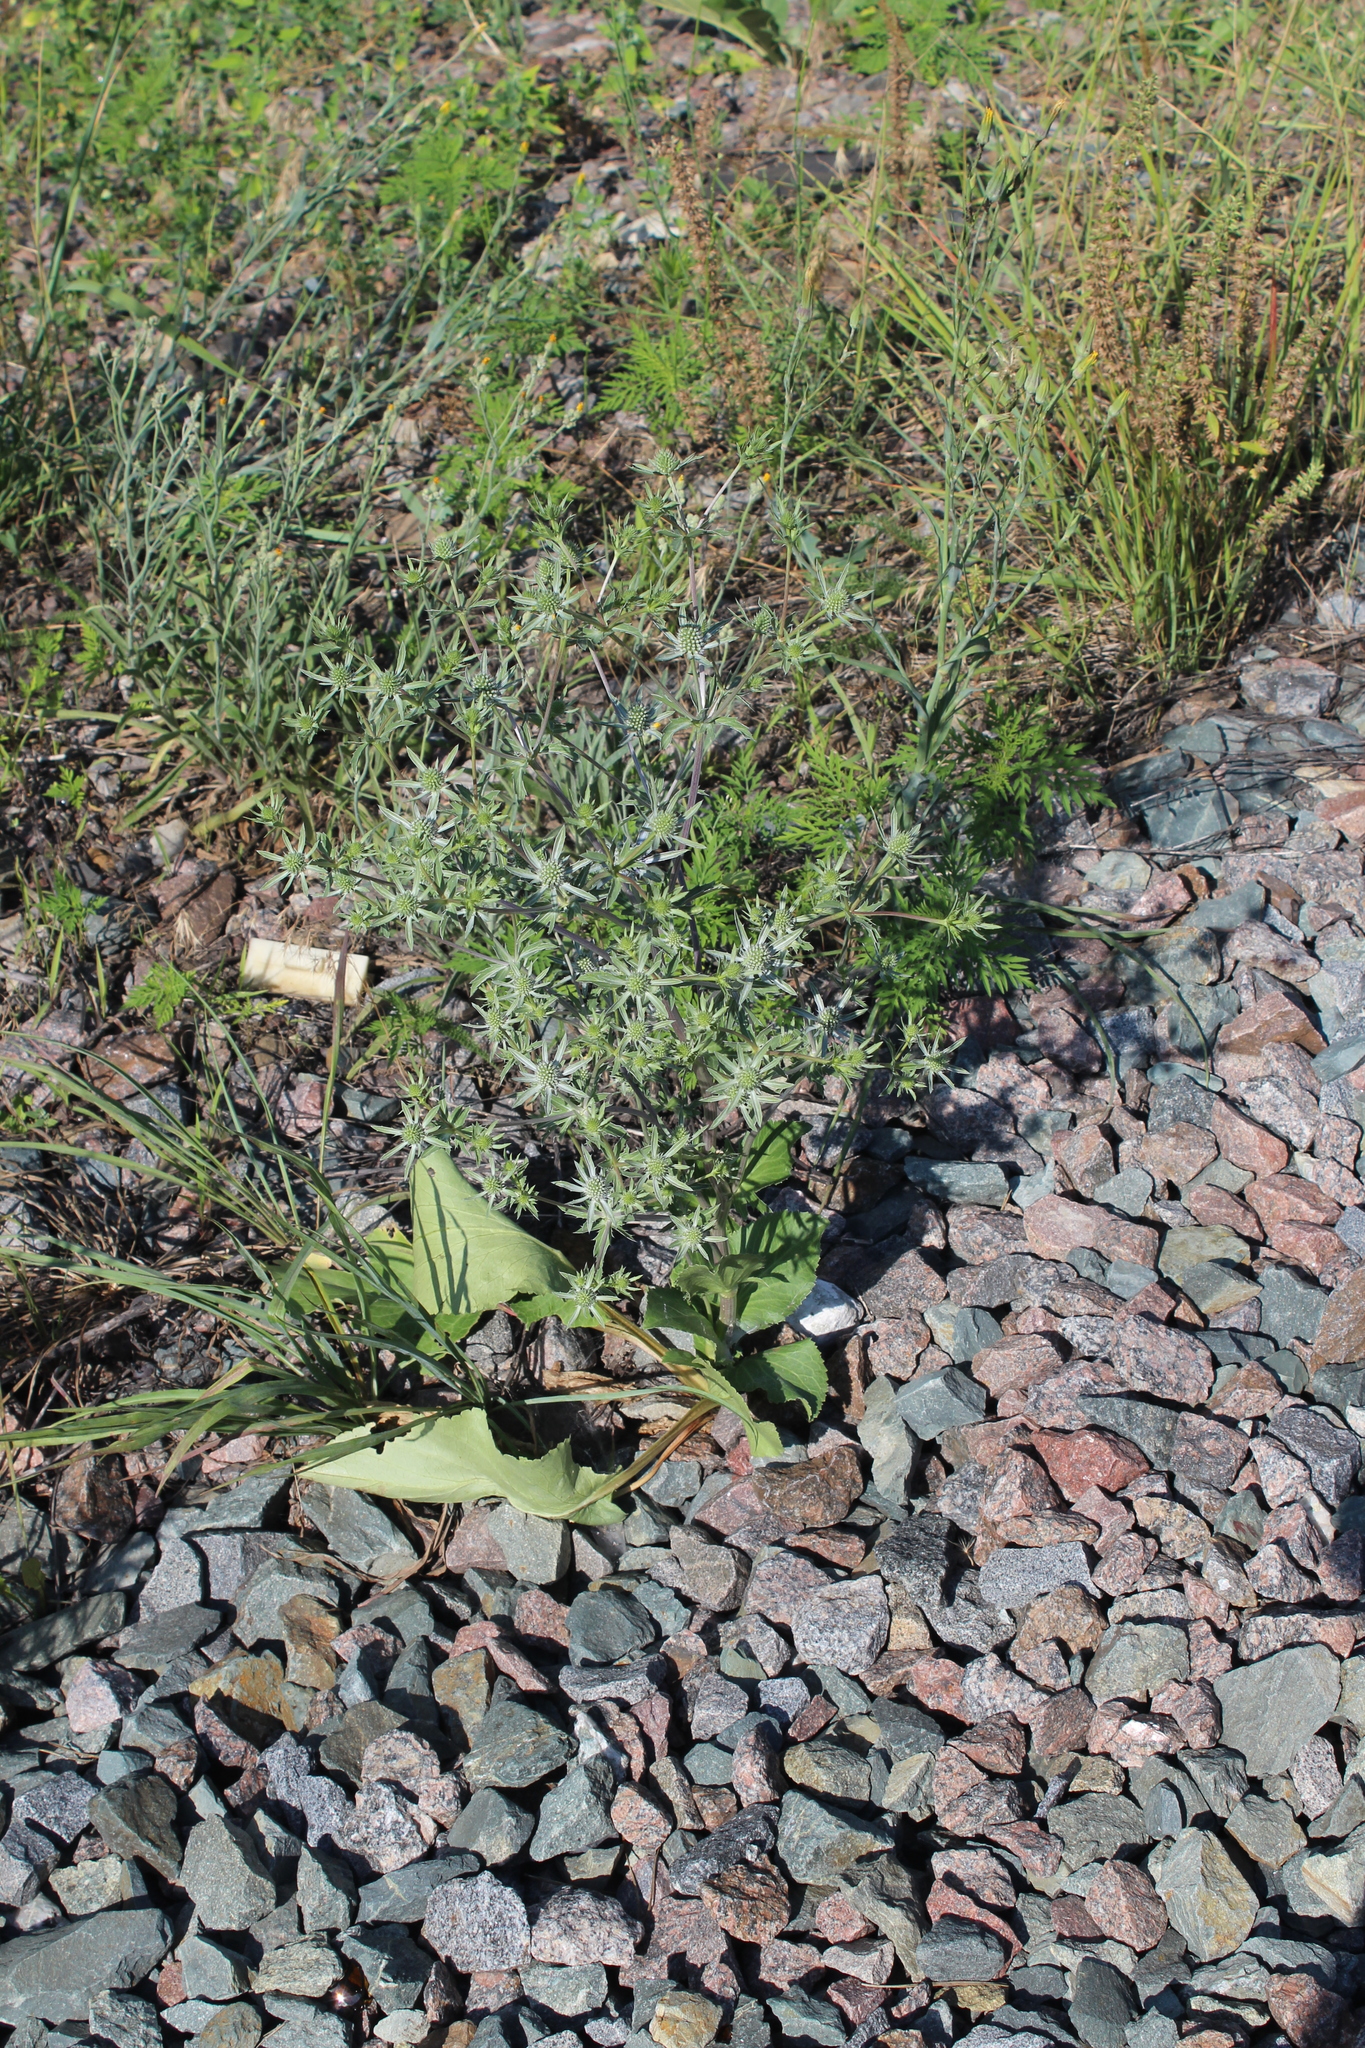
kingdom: Plantae
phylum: Tracheophyta
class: Magnoliopsida
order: Apiales
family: Apiaceae
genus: Eryngium
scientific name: Eryngium planum
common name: Blue eryngo
